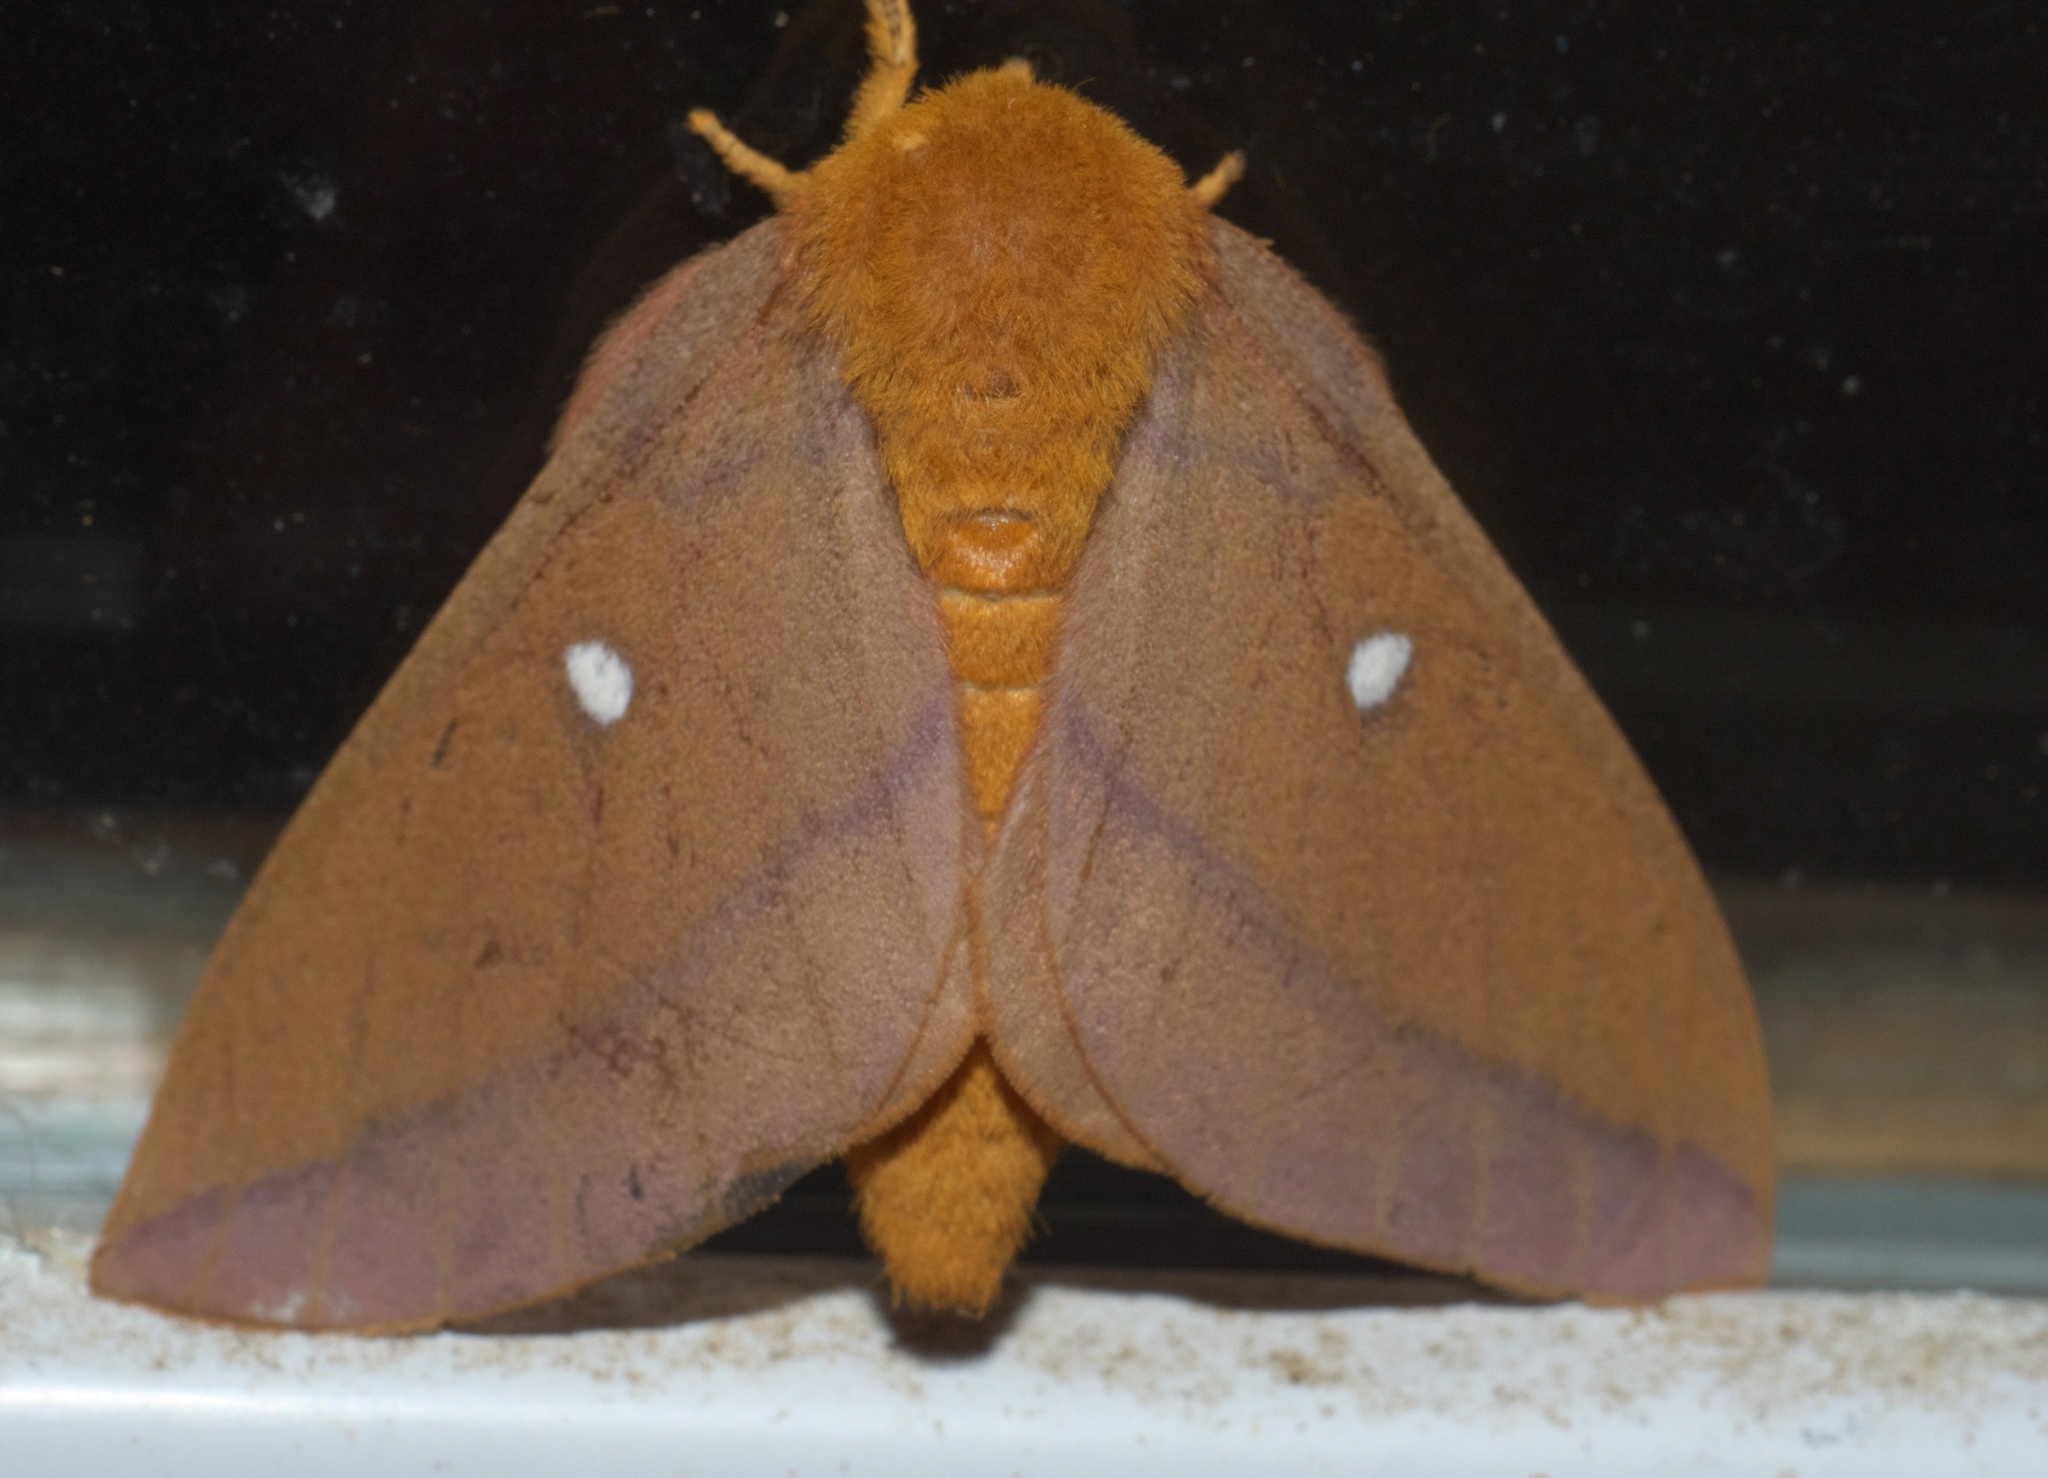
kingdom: Animalia
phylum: Arthropoda
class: Insecta
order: Lepidoptera
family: Saturniidae
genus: Anisota
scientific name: Anisota virginiensis
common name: Pink striped oakworm moth
